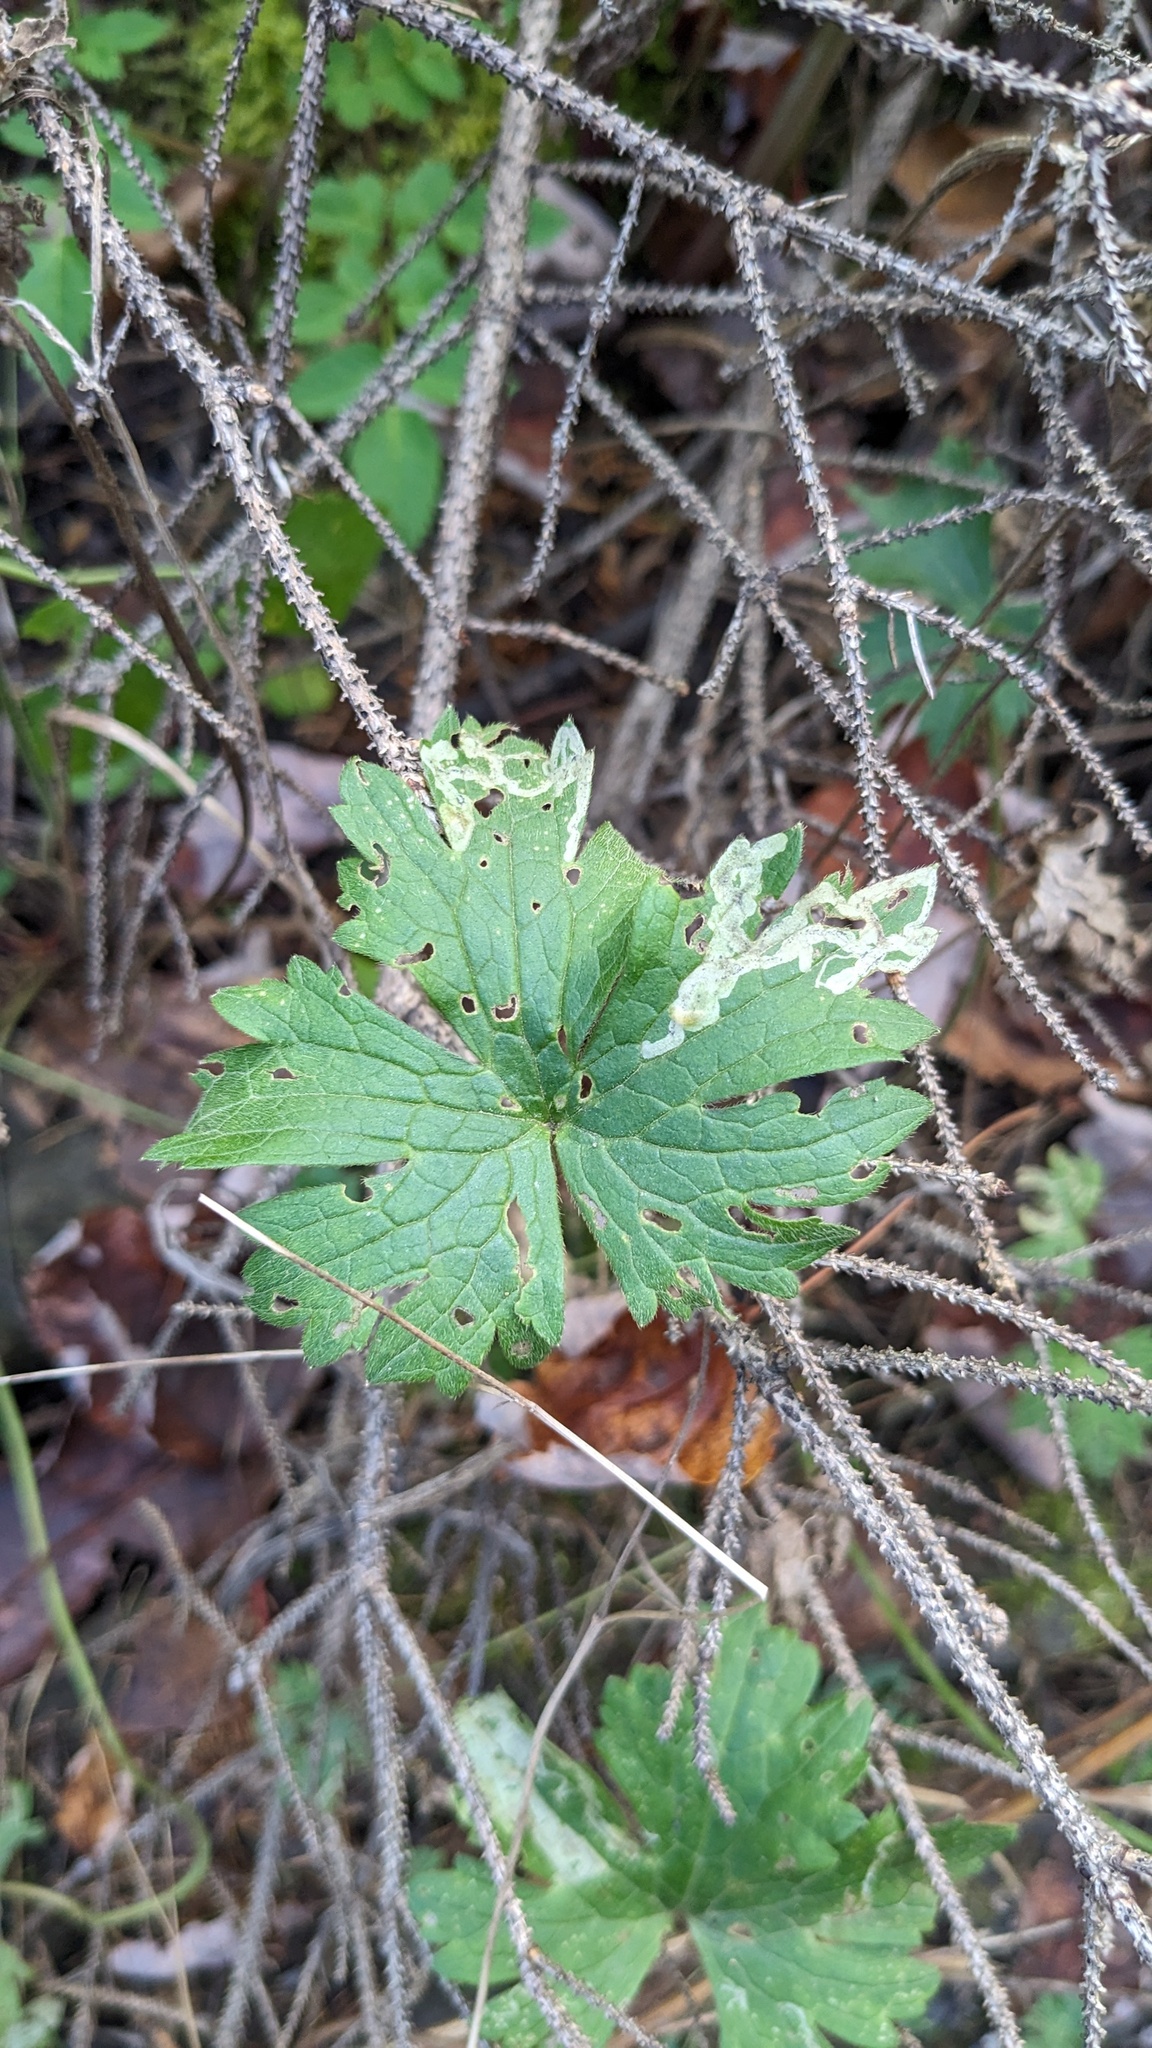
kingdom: Animalia
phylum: Arthropoda
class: Insecta
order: Diptera
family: Agromyzidae
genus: Phytomyza
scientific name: Phytomyza ranunculi
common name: Leaf-miner fly
